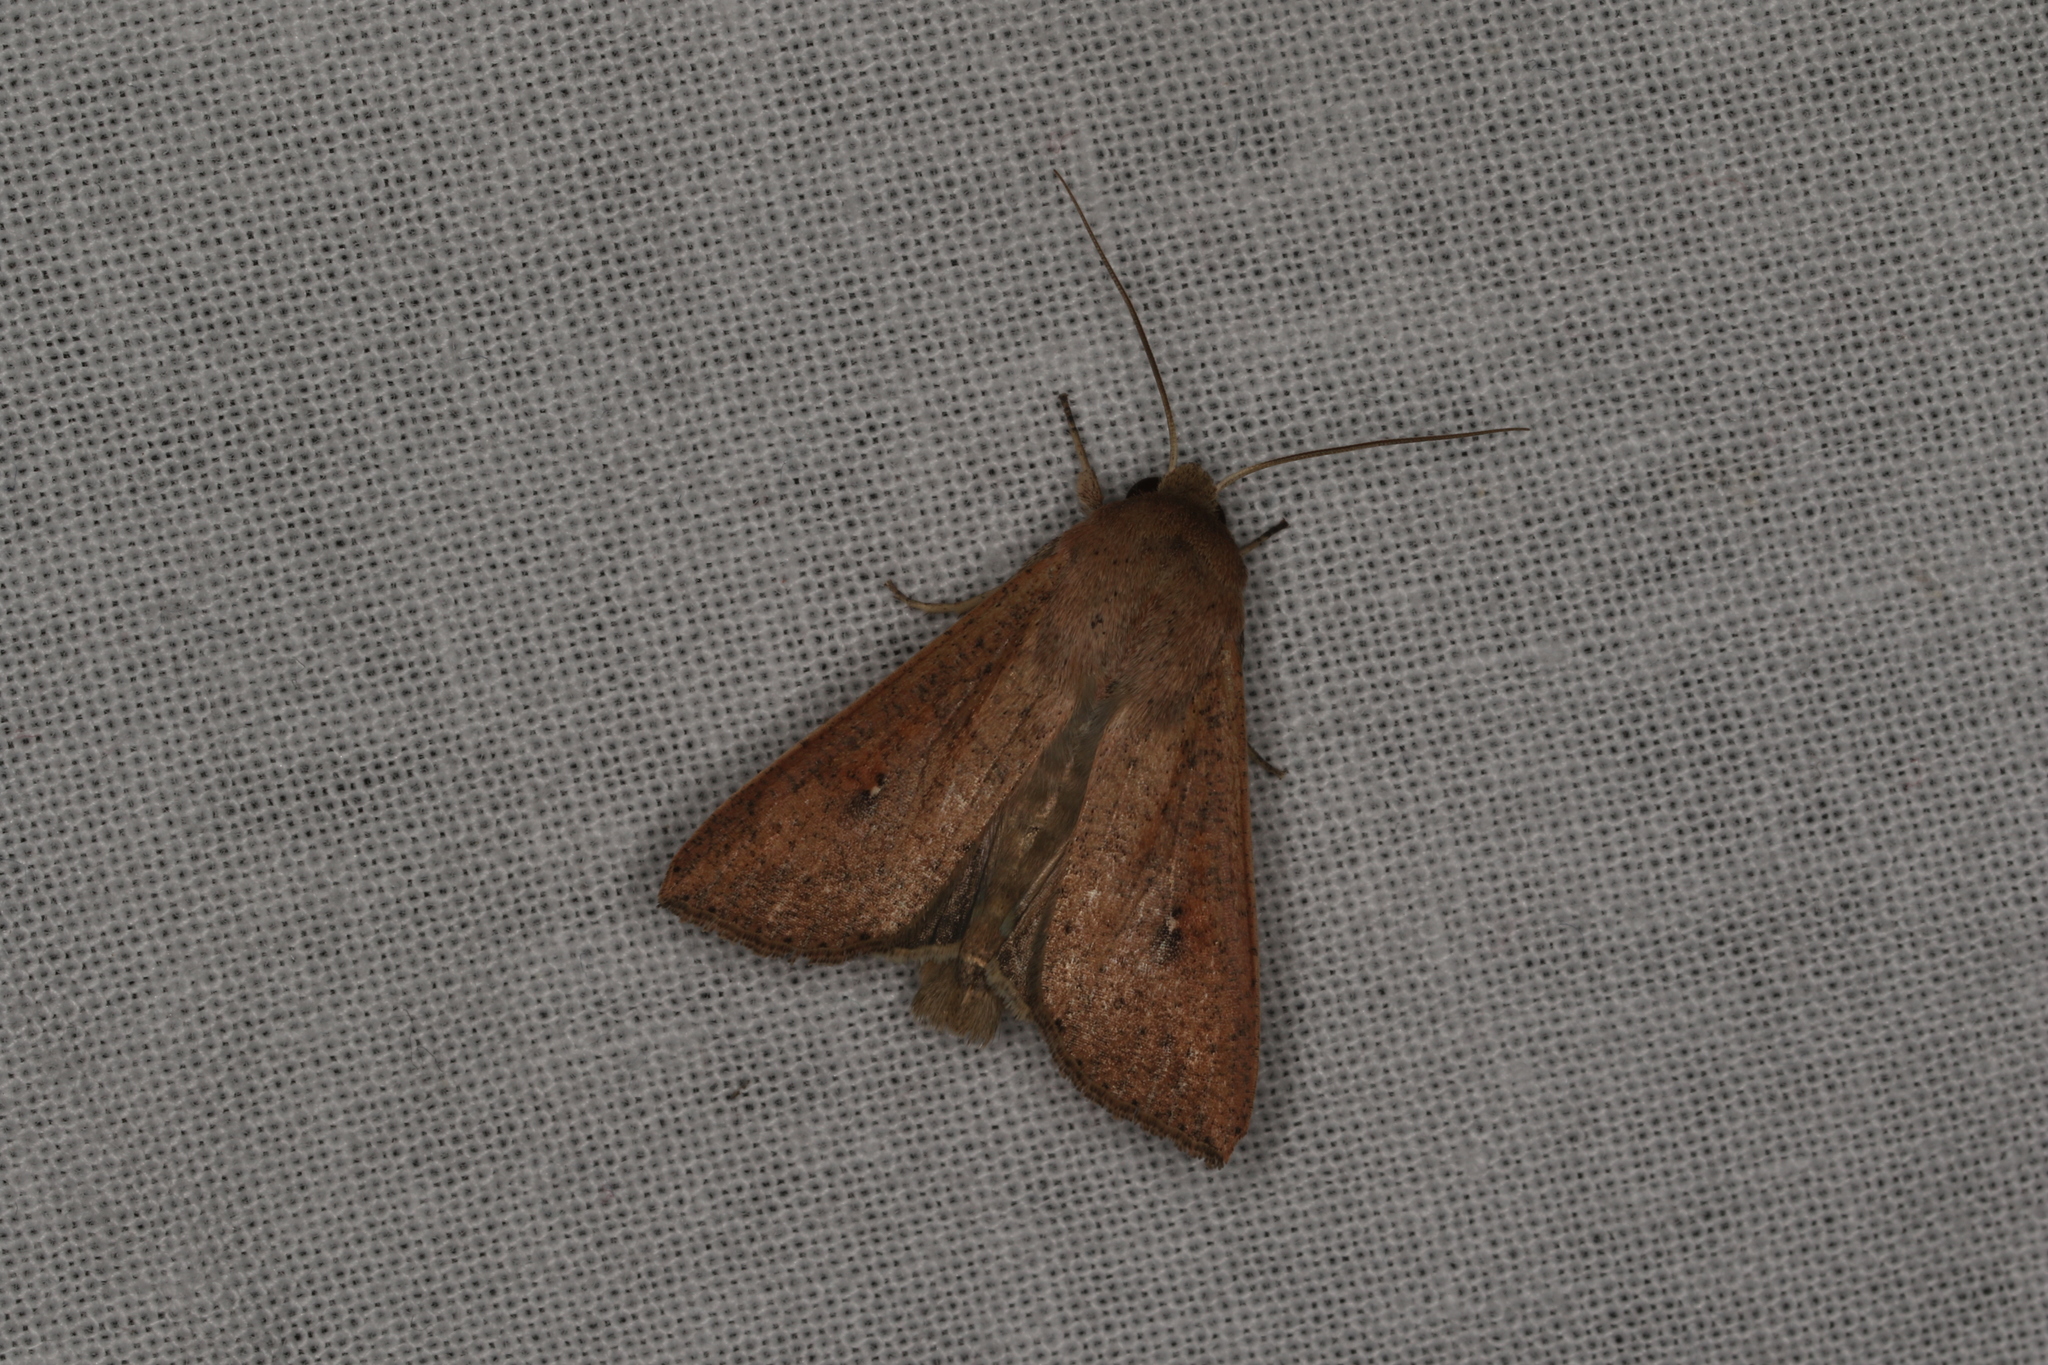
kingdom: Animalia
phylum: Arthropoda
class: Insecta
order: Lepidoptera
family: Noctuidae
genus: Mythimna
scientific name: Mythimna convecta
